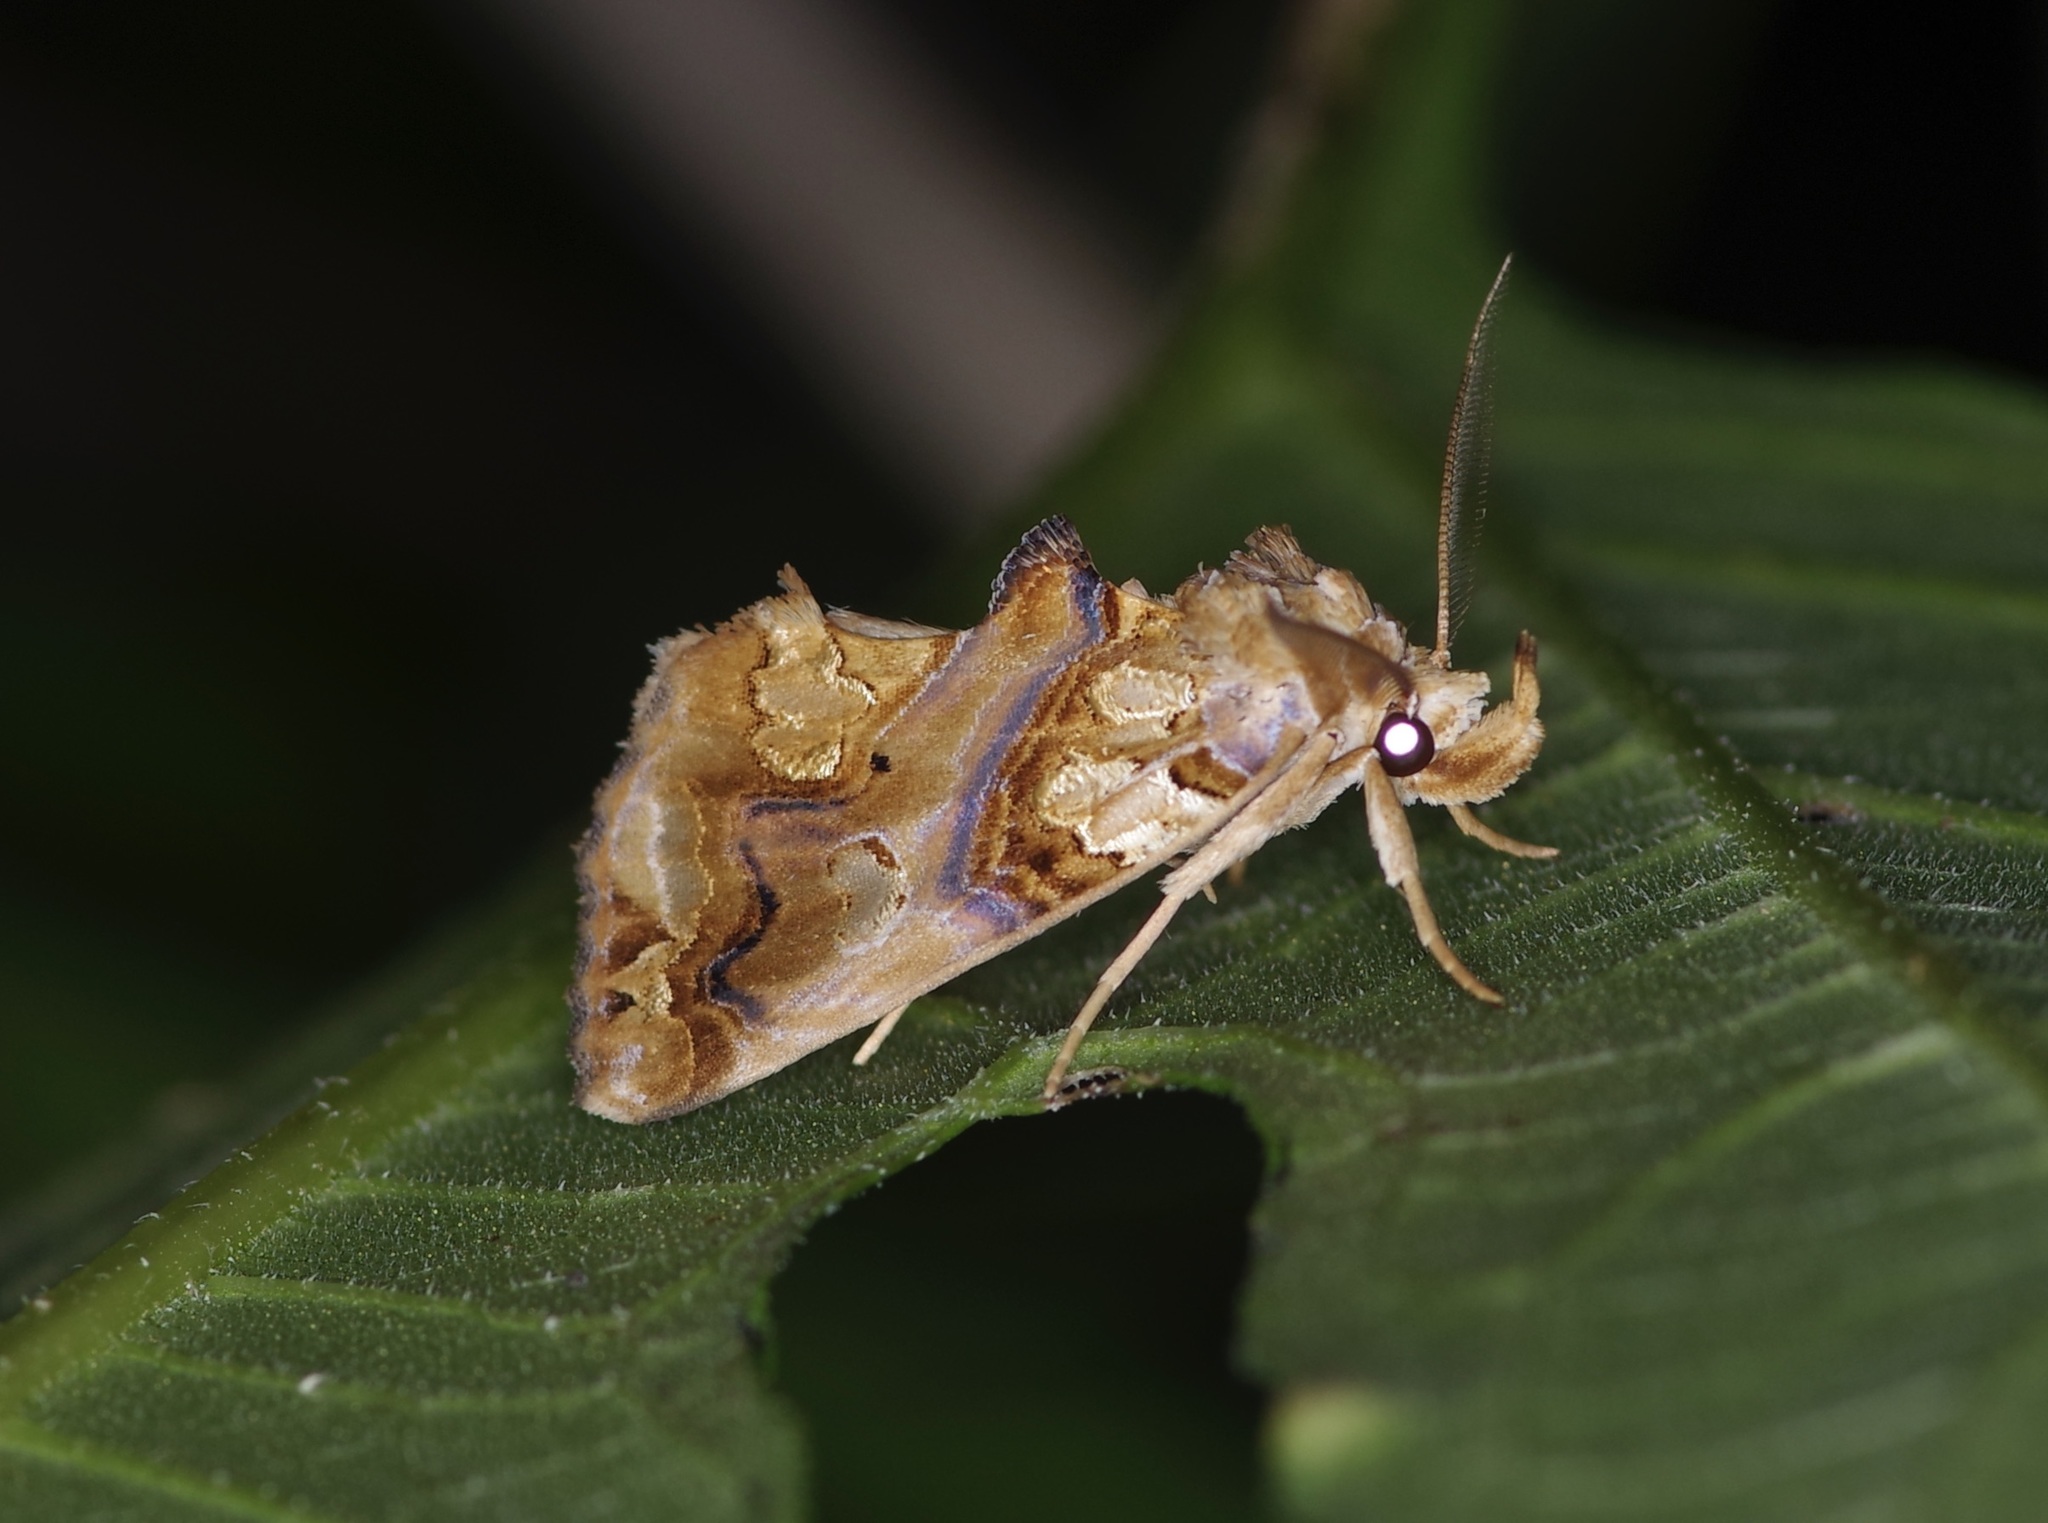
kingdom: Animalia
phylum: Arthropoda
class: Insecta
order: Lepidoptera
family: Erebidae
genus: Plusiodonta
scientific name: Plusiodonta compressipalpis
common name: Moonseed moth
